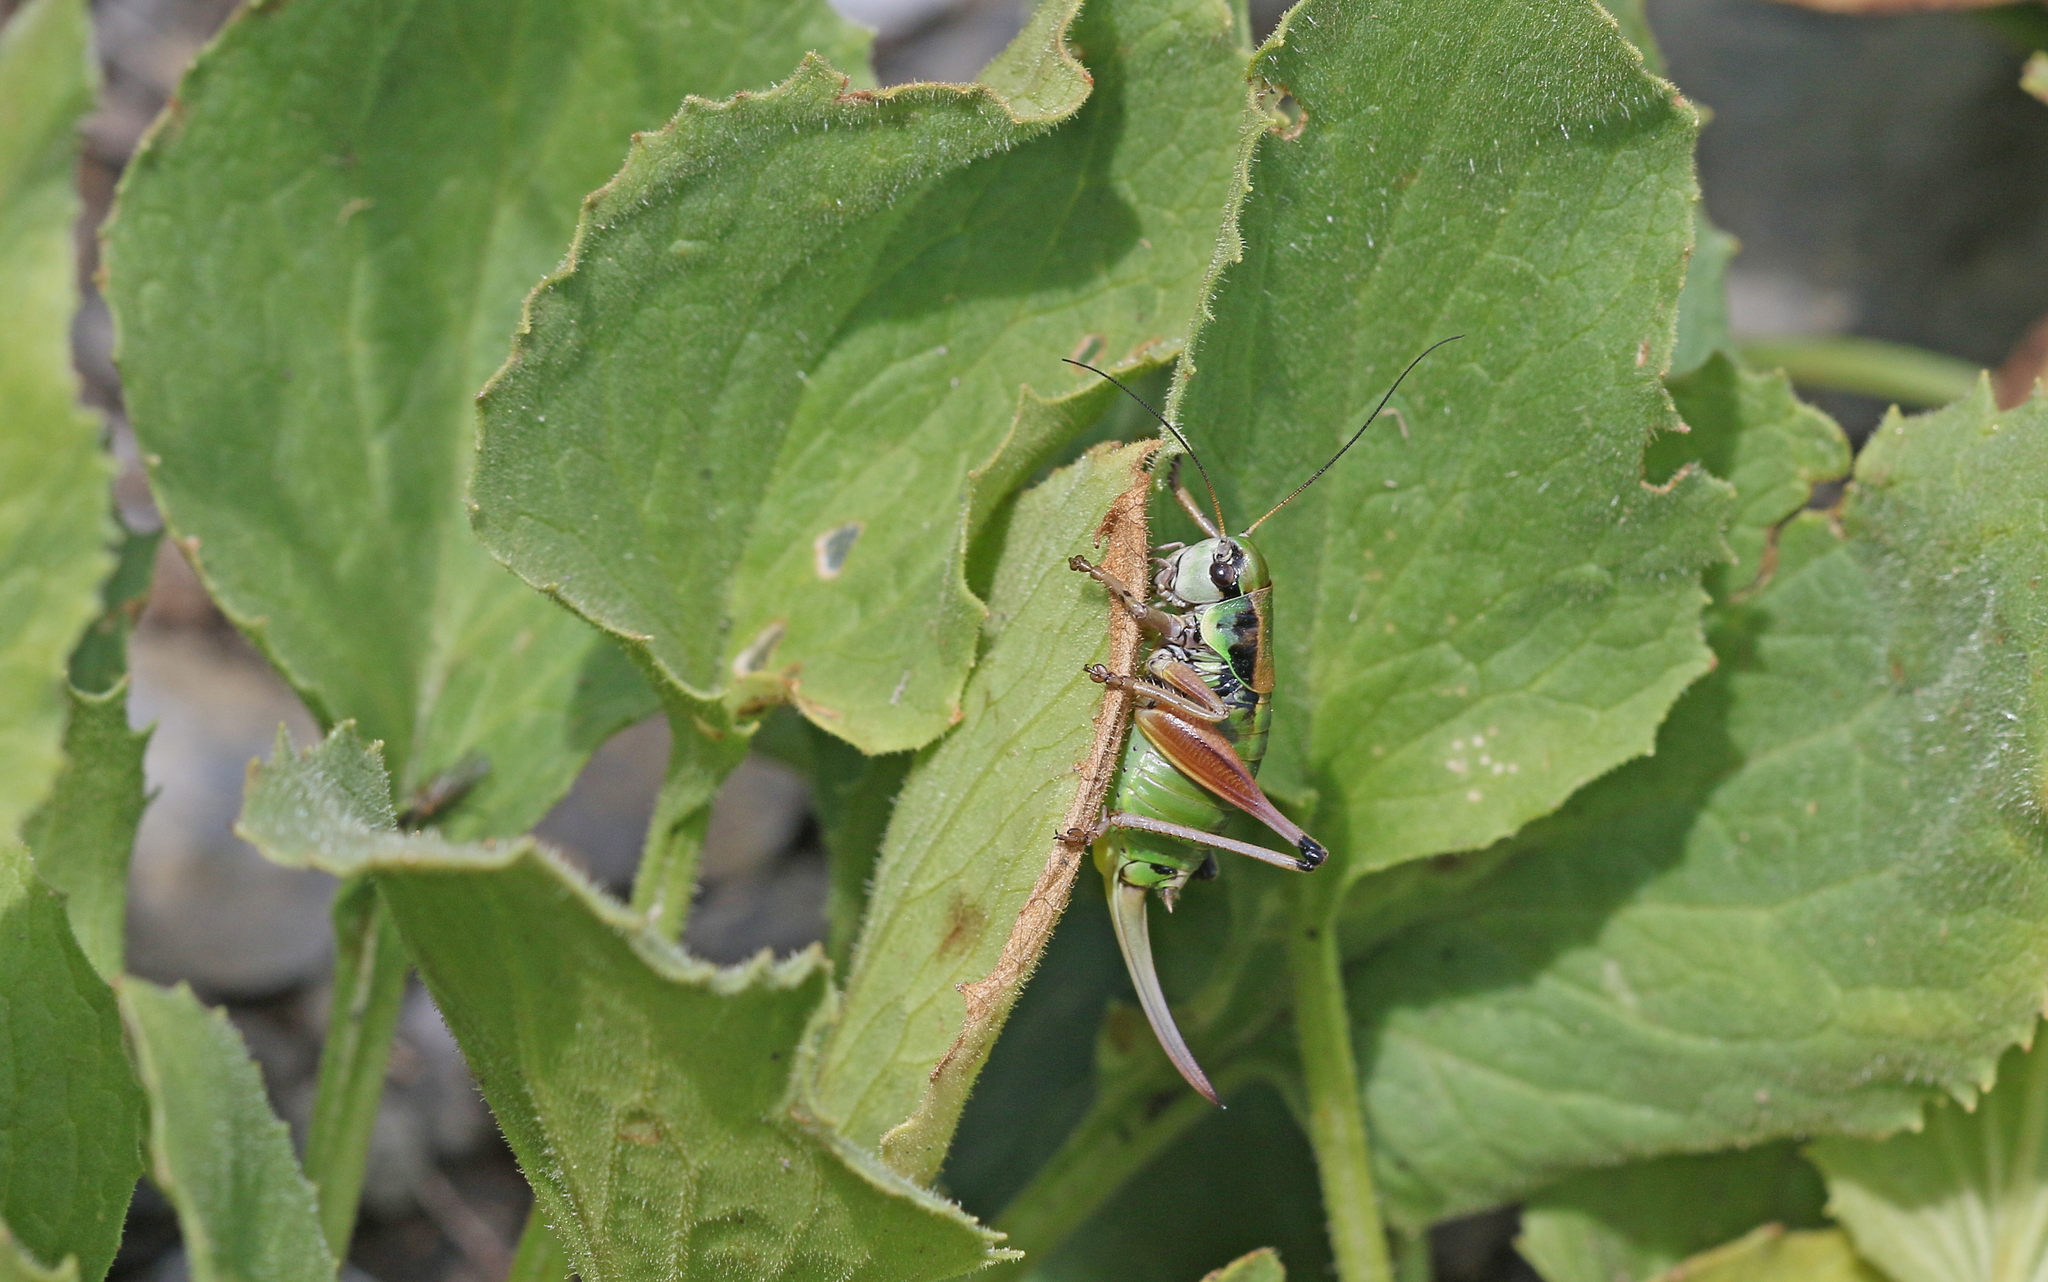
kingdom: Animalia
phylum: Arthropoda
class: Insecta
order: Orthoptera
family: Tettigoniidae
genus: Anonconotus
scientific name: Anonconotus occidentalis
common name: Western alpine bush-cricket
